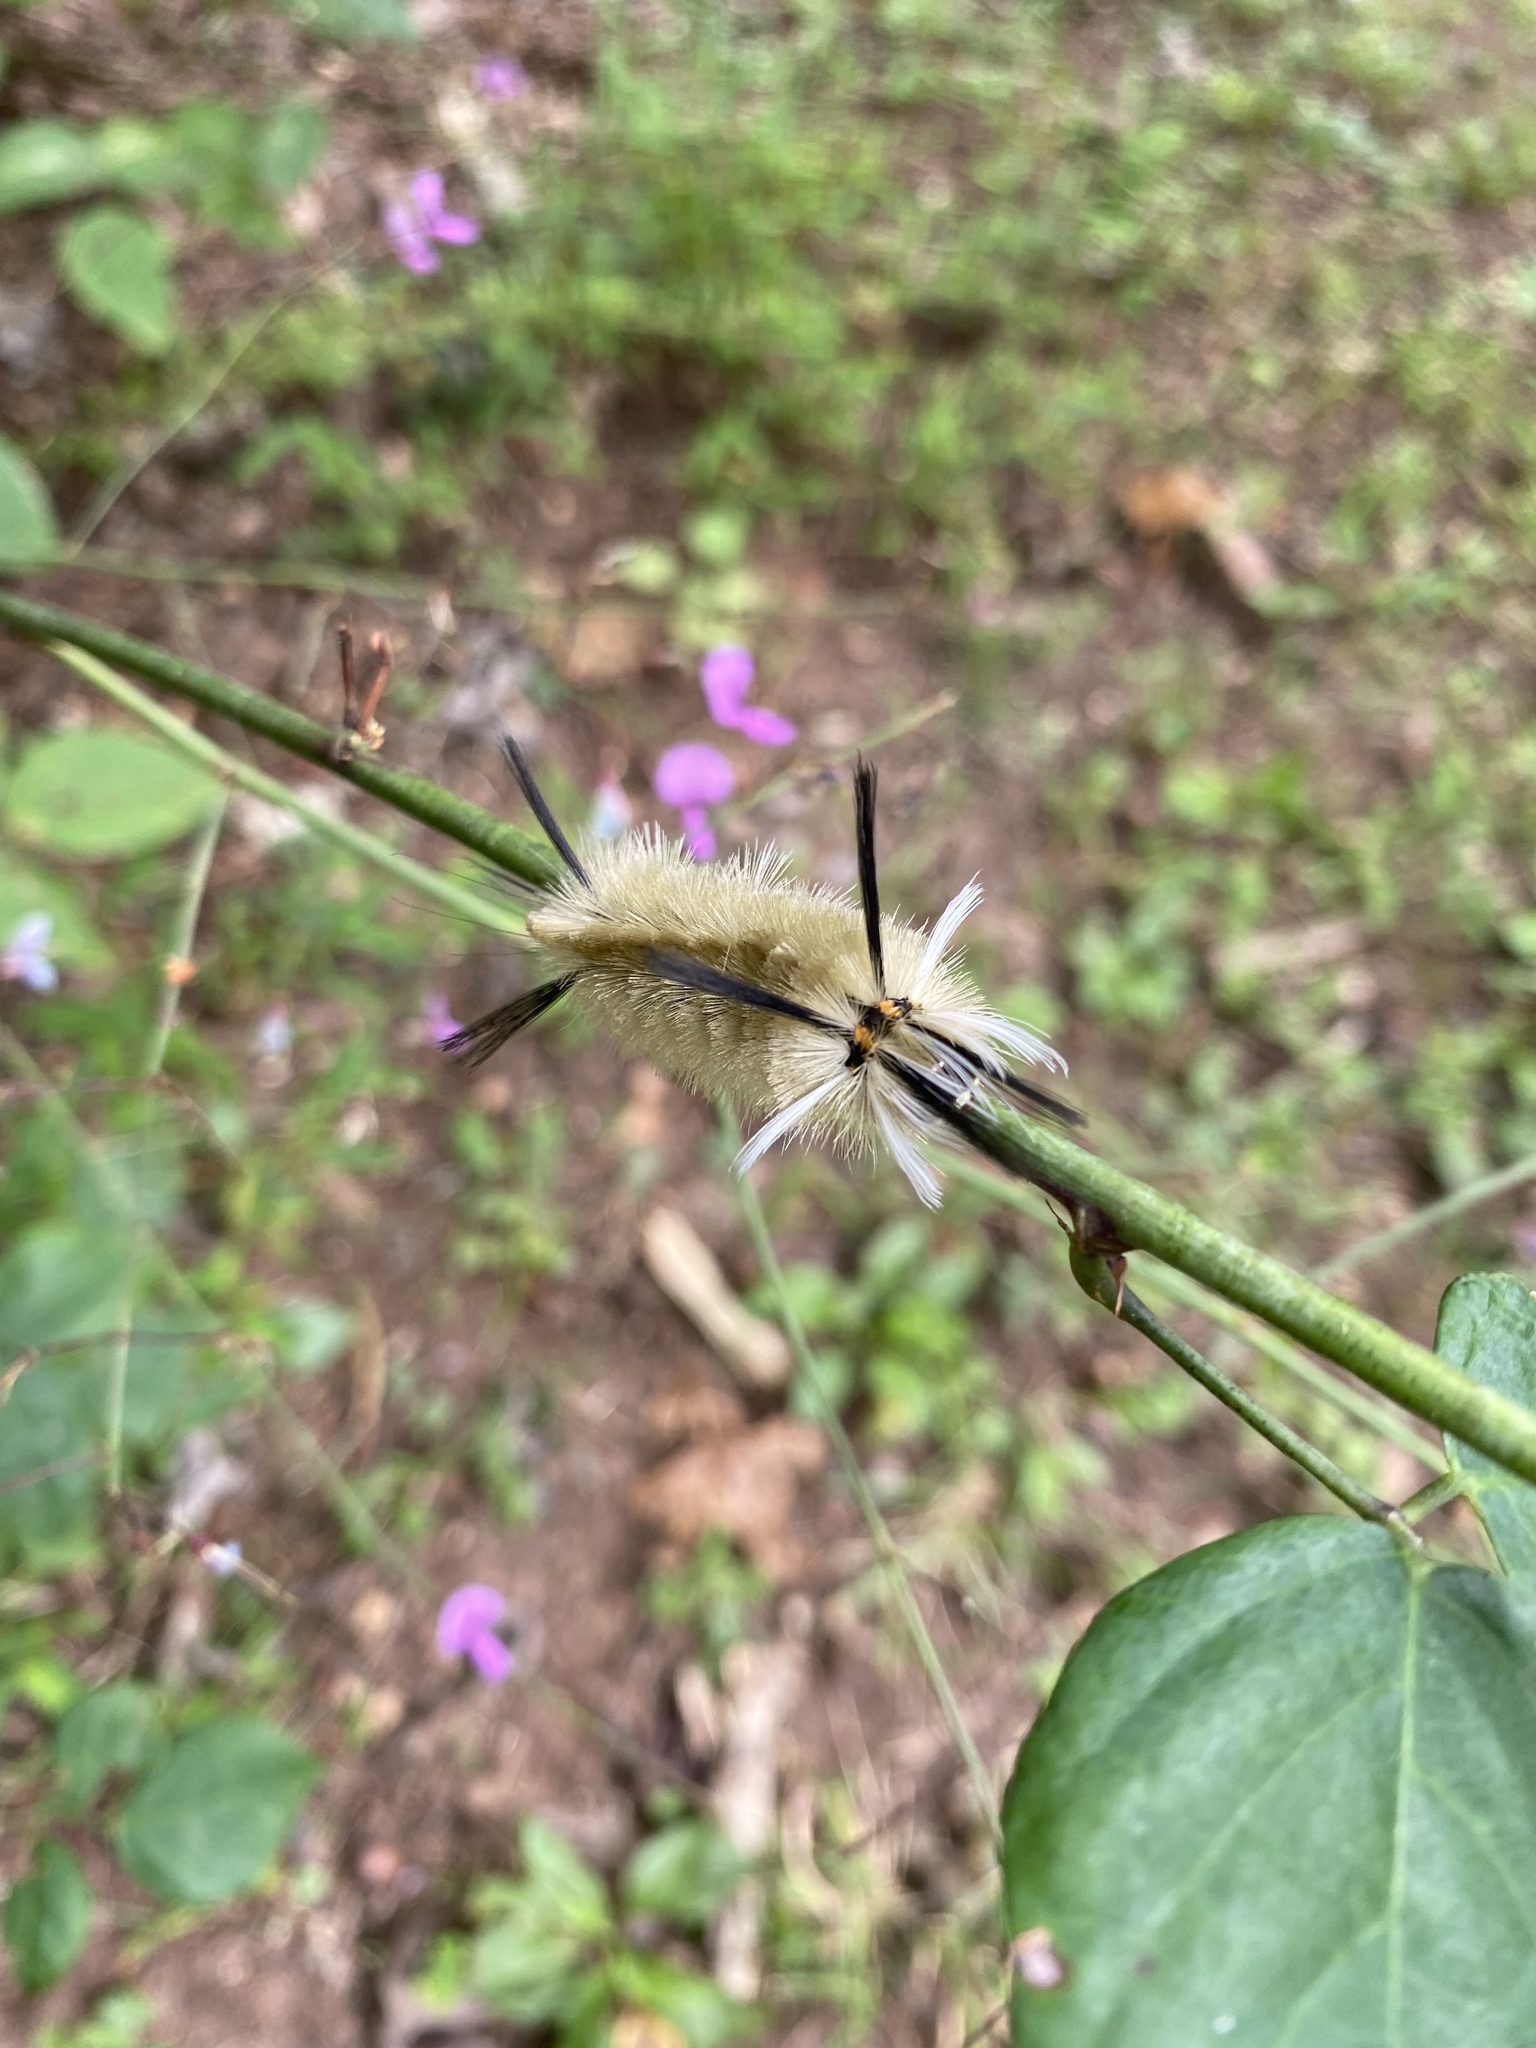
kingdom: Animalia
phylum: Arthropoda
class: Insecta
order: Lepidoptera
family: Erebidae
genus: Halysidota
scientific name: Halysidota tessellaris
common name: Banded tussock moth
